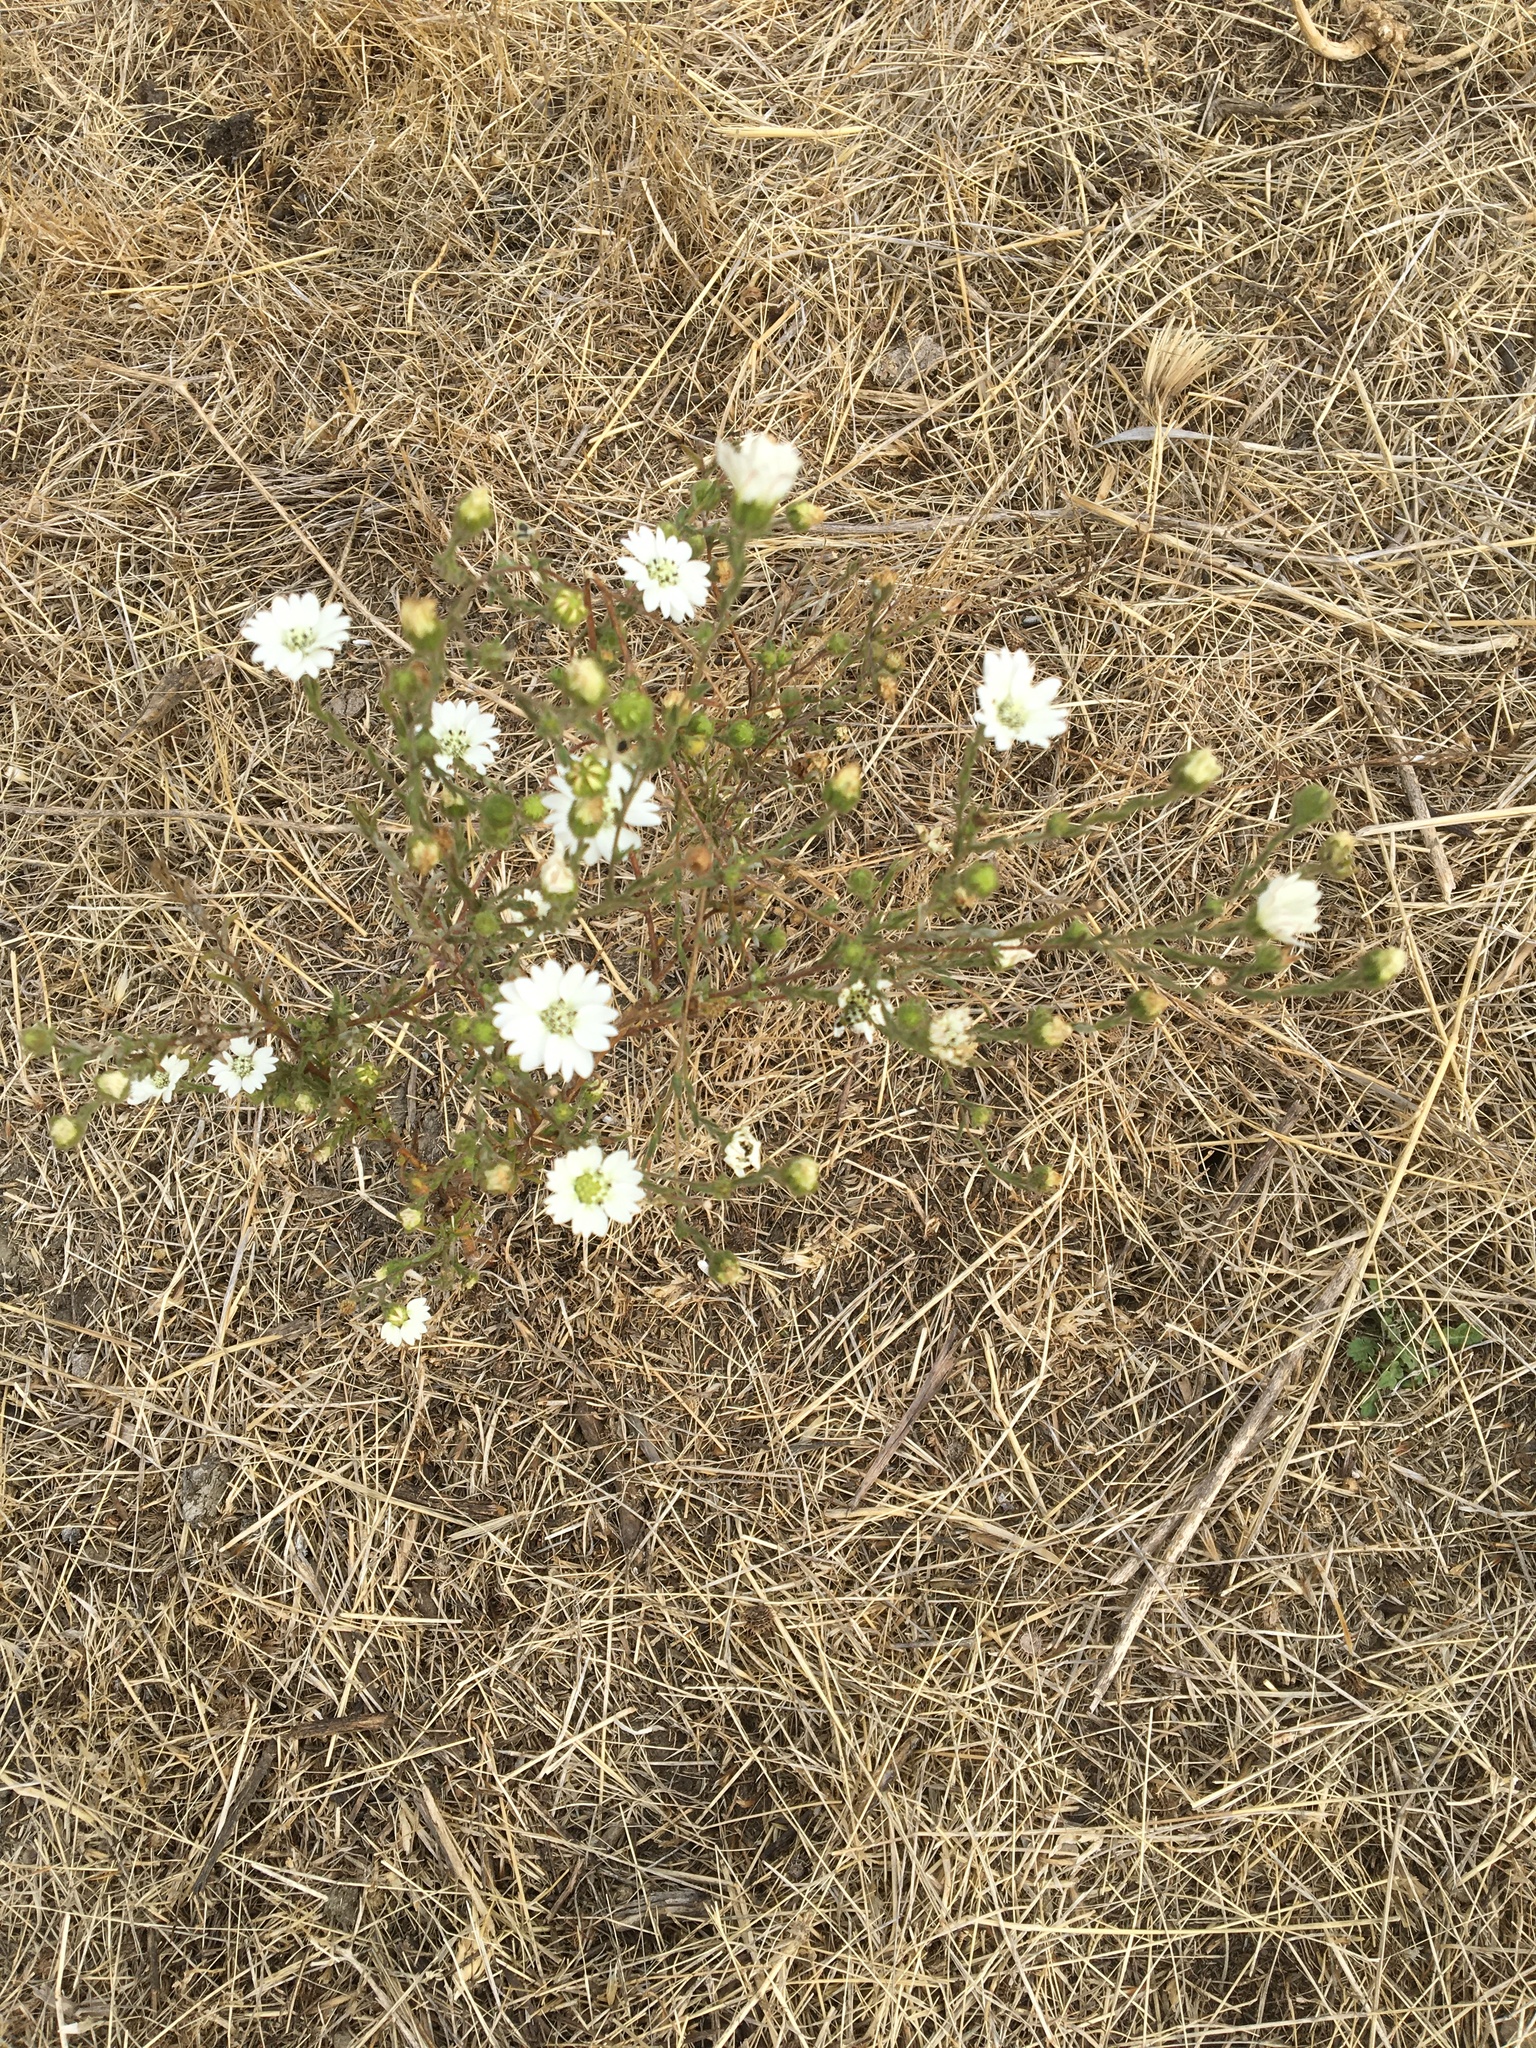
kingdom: Plantae
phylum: Tracheophyta
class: Magnoliopsida
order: Asterales
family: Asteraceae
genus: Hemizonia
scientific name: Hemizonia congesta
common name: Hayfield tarweed
